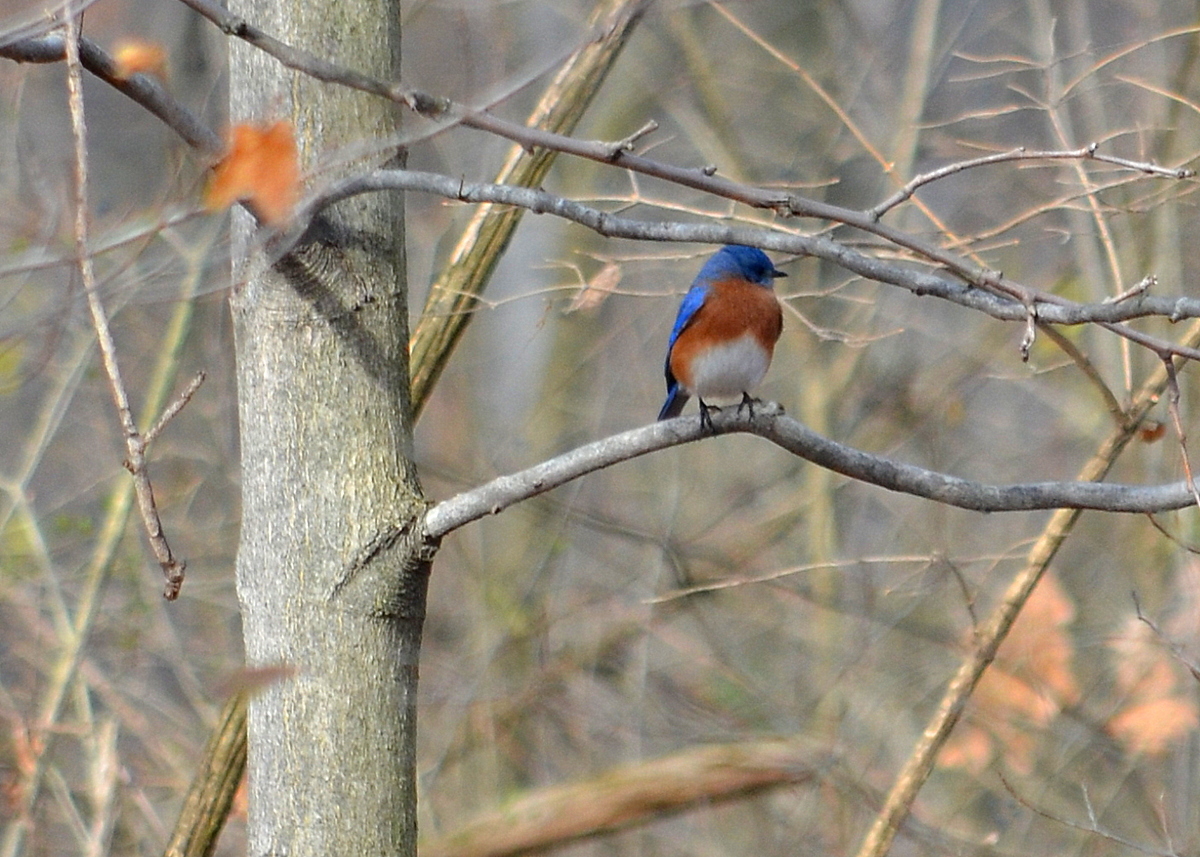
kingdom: Animalia
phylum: Chordata
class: Aves
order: Passeriformes
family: Turdidae
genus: Sialia
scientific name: Sialia sialis
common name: Eastern bluebird
